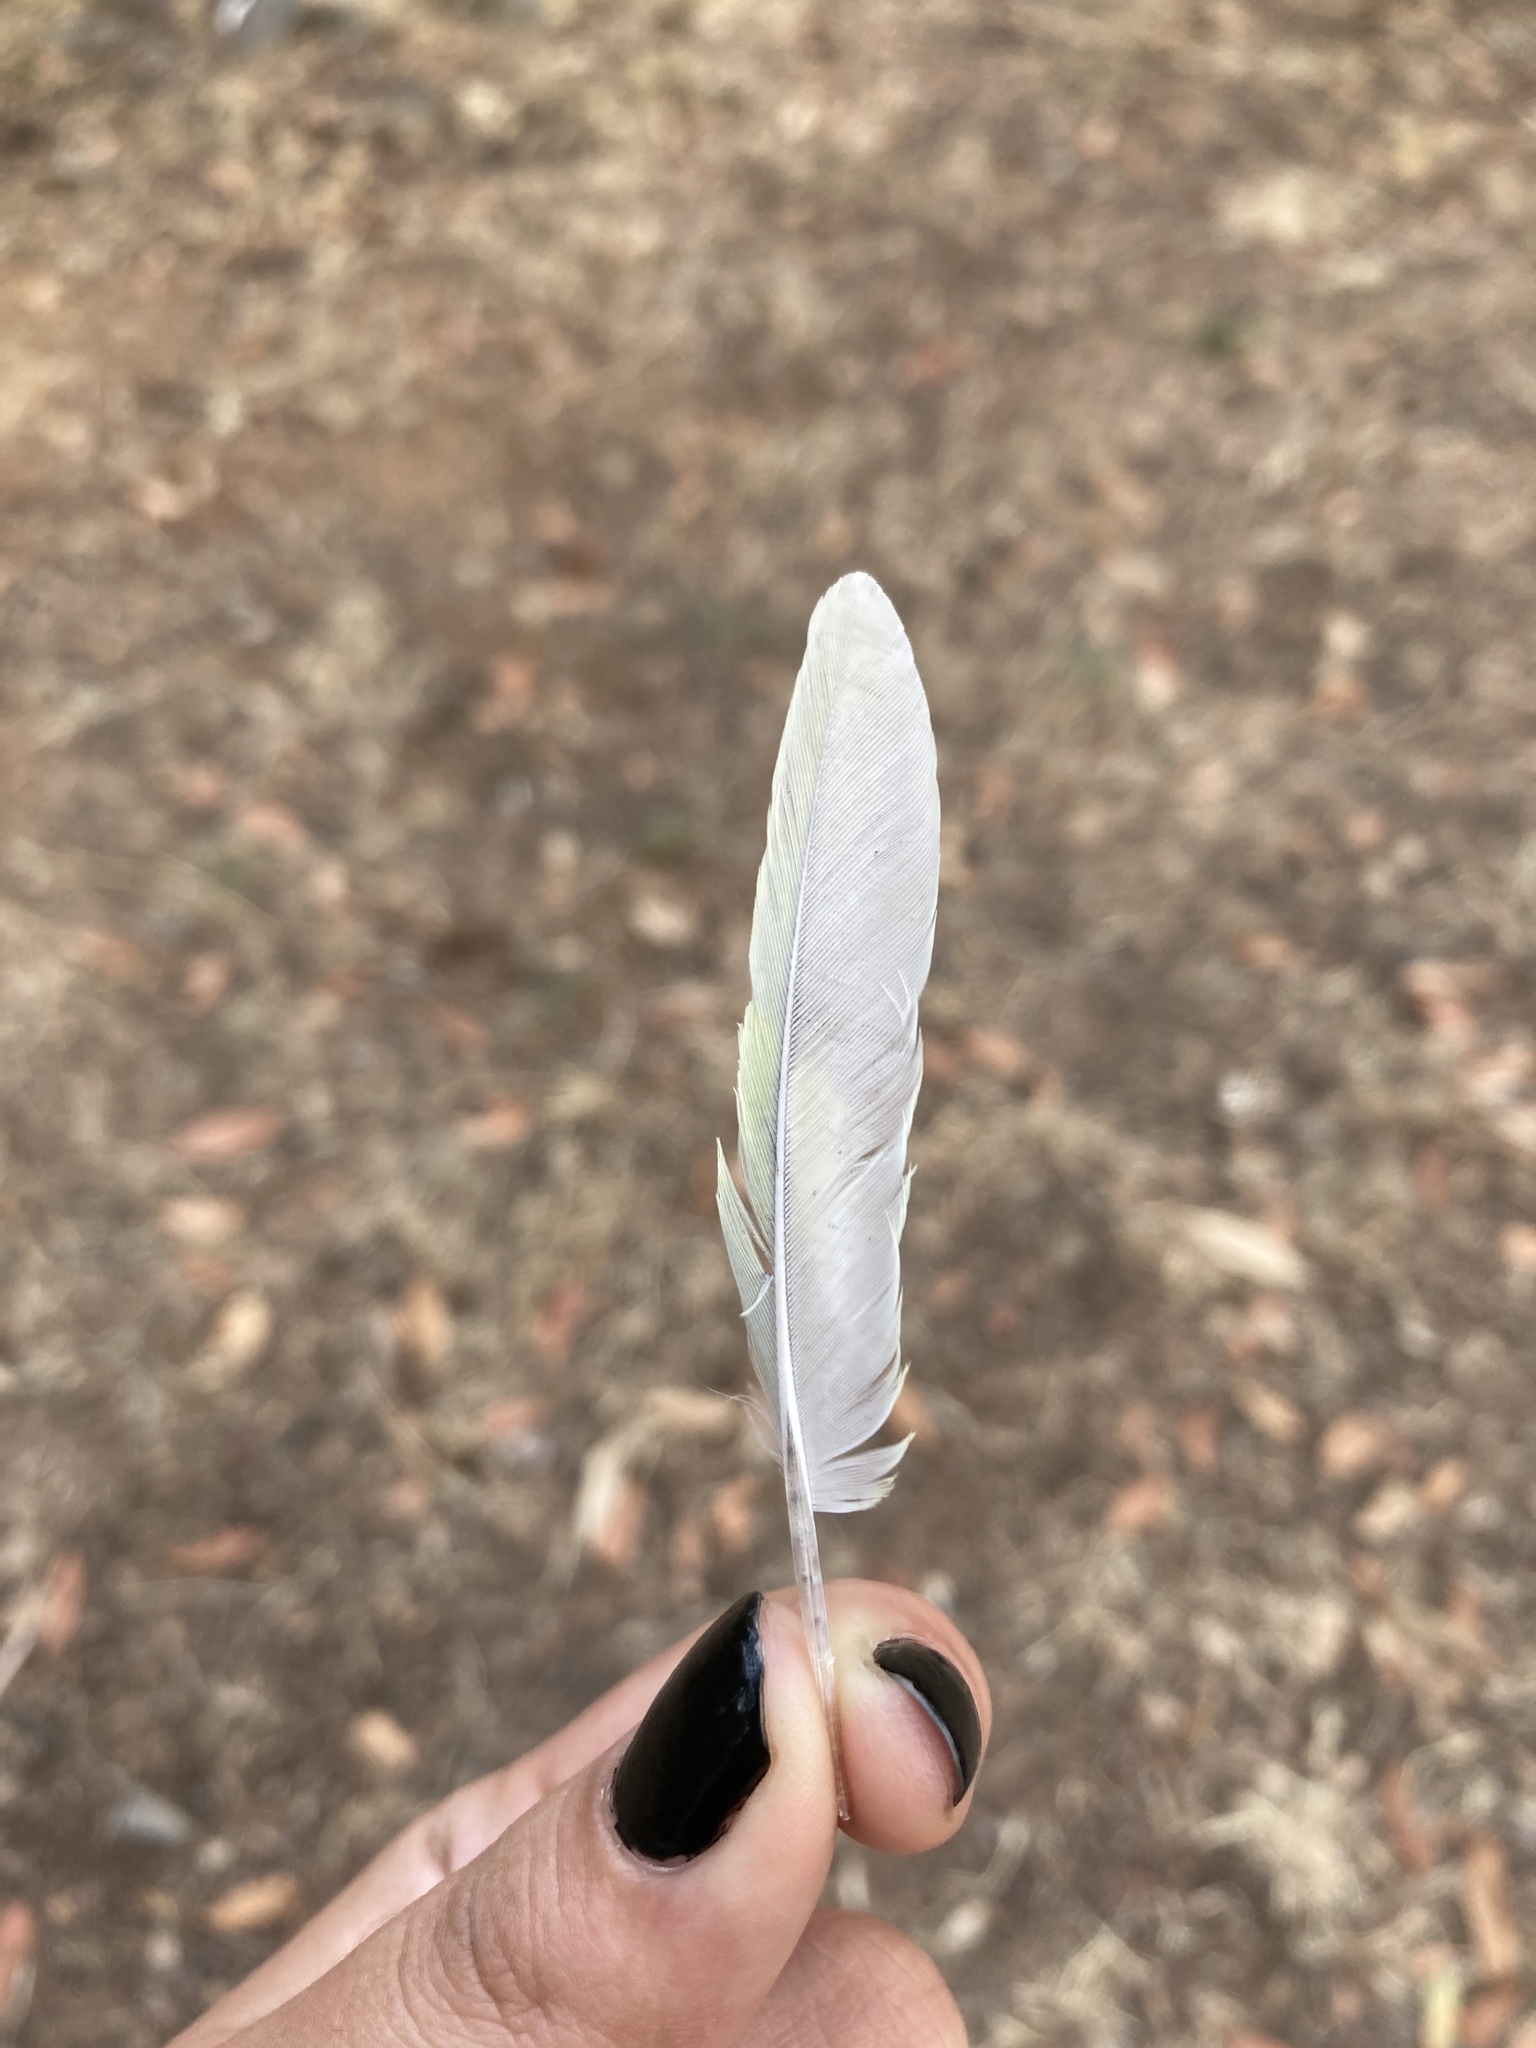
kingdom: Animalia
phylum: Chordata
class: Aves
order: Psittaciformes
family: Psittacidae
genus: Melopsittacus
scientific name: Melopsittacus undulatus
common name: Budgerigar
